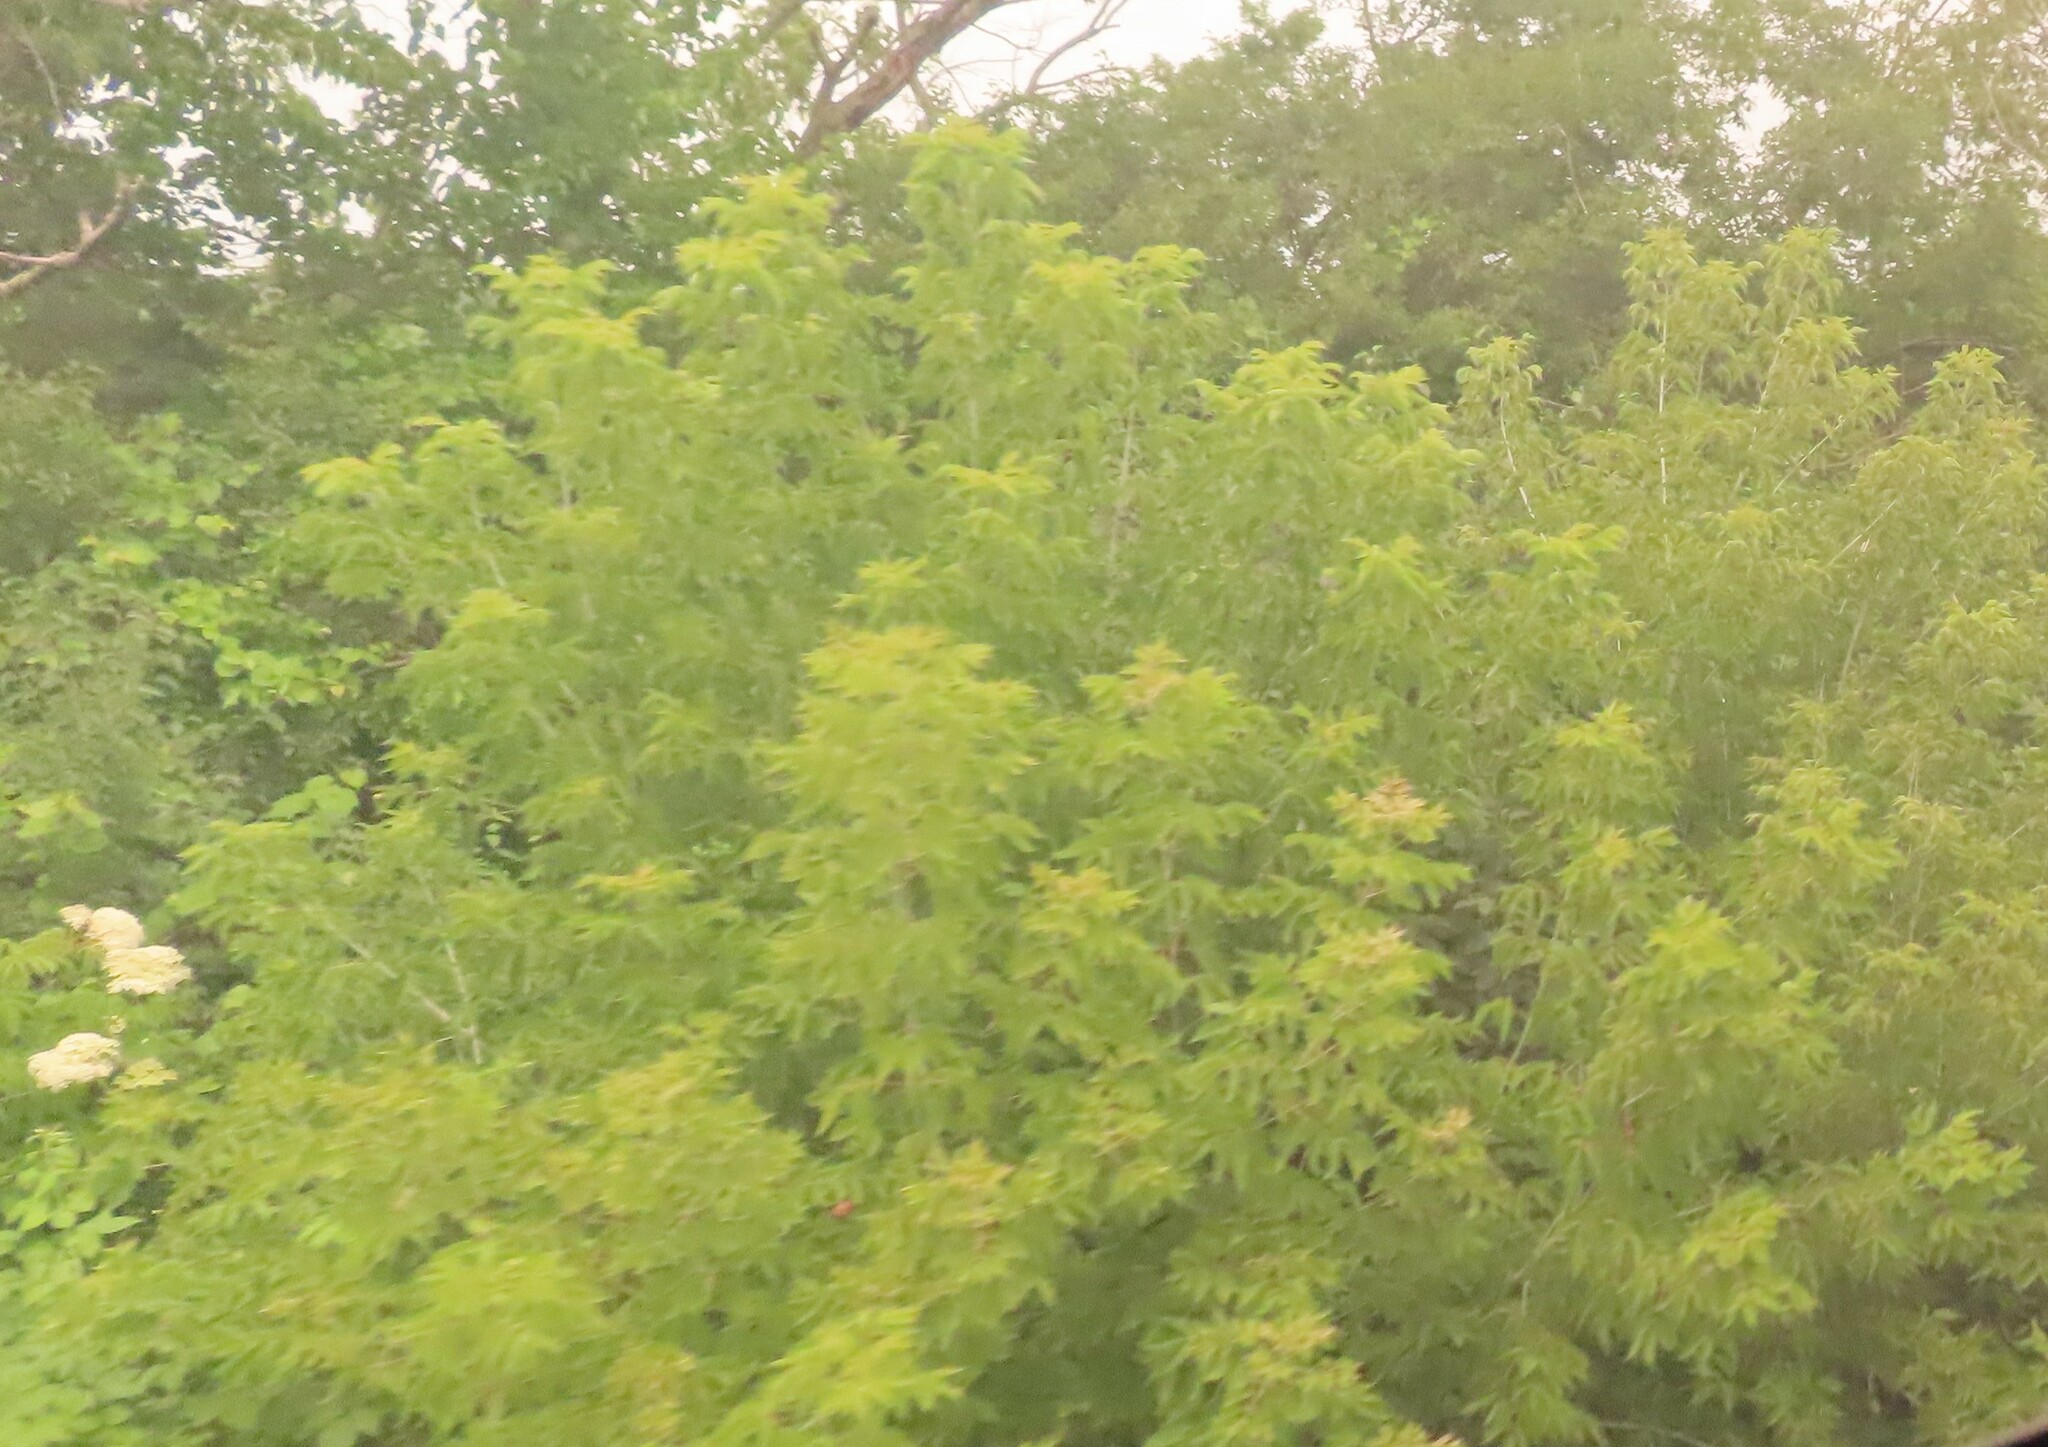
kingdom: Plantae
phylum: Tracheophyta
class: Magnoliopsida
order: Sapindales
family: Sapindaceae
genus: Acer
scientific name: Acer negundo
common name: Ashleaf maple
